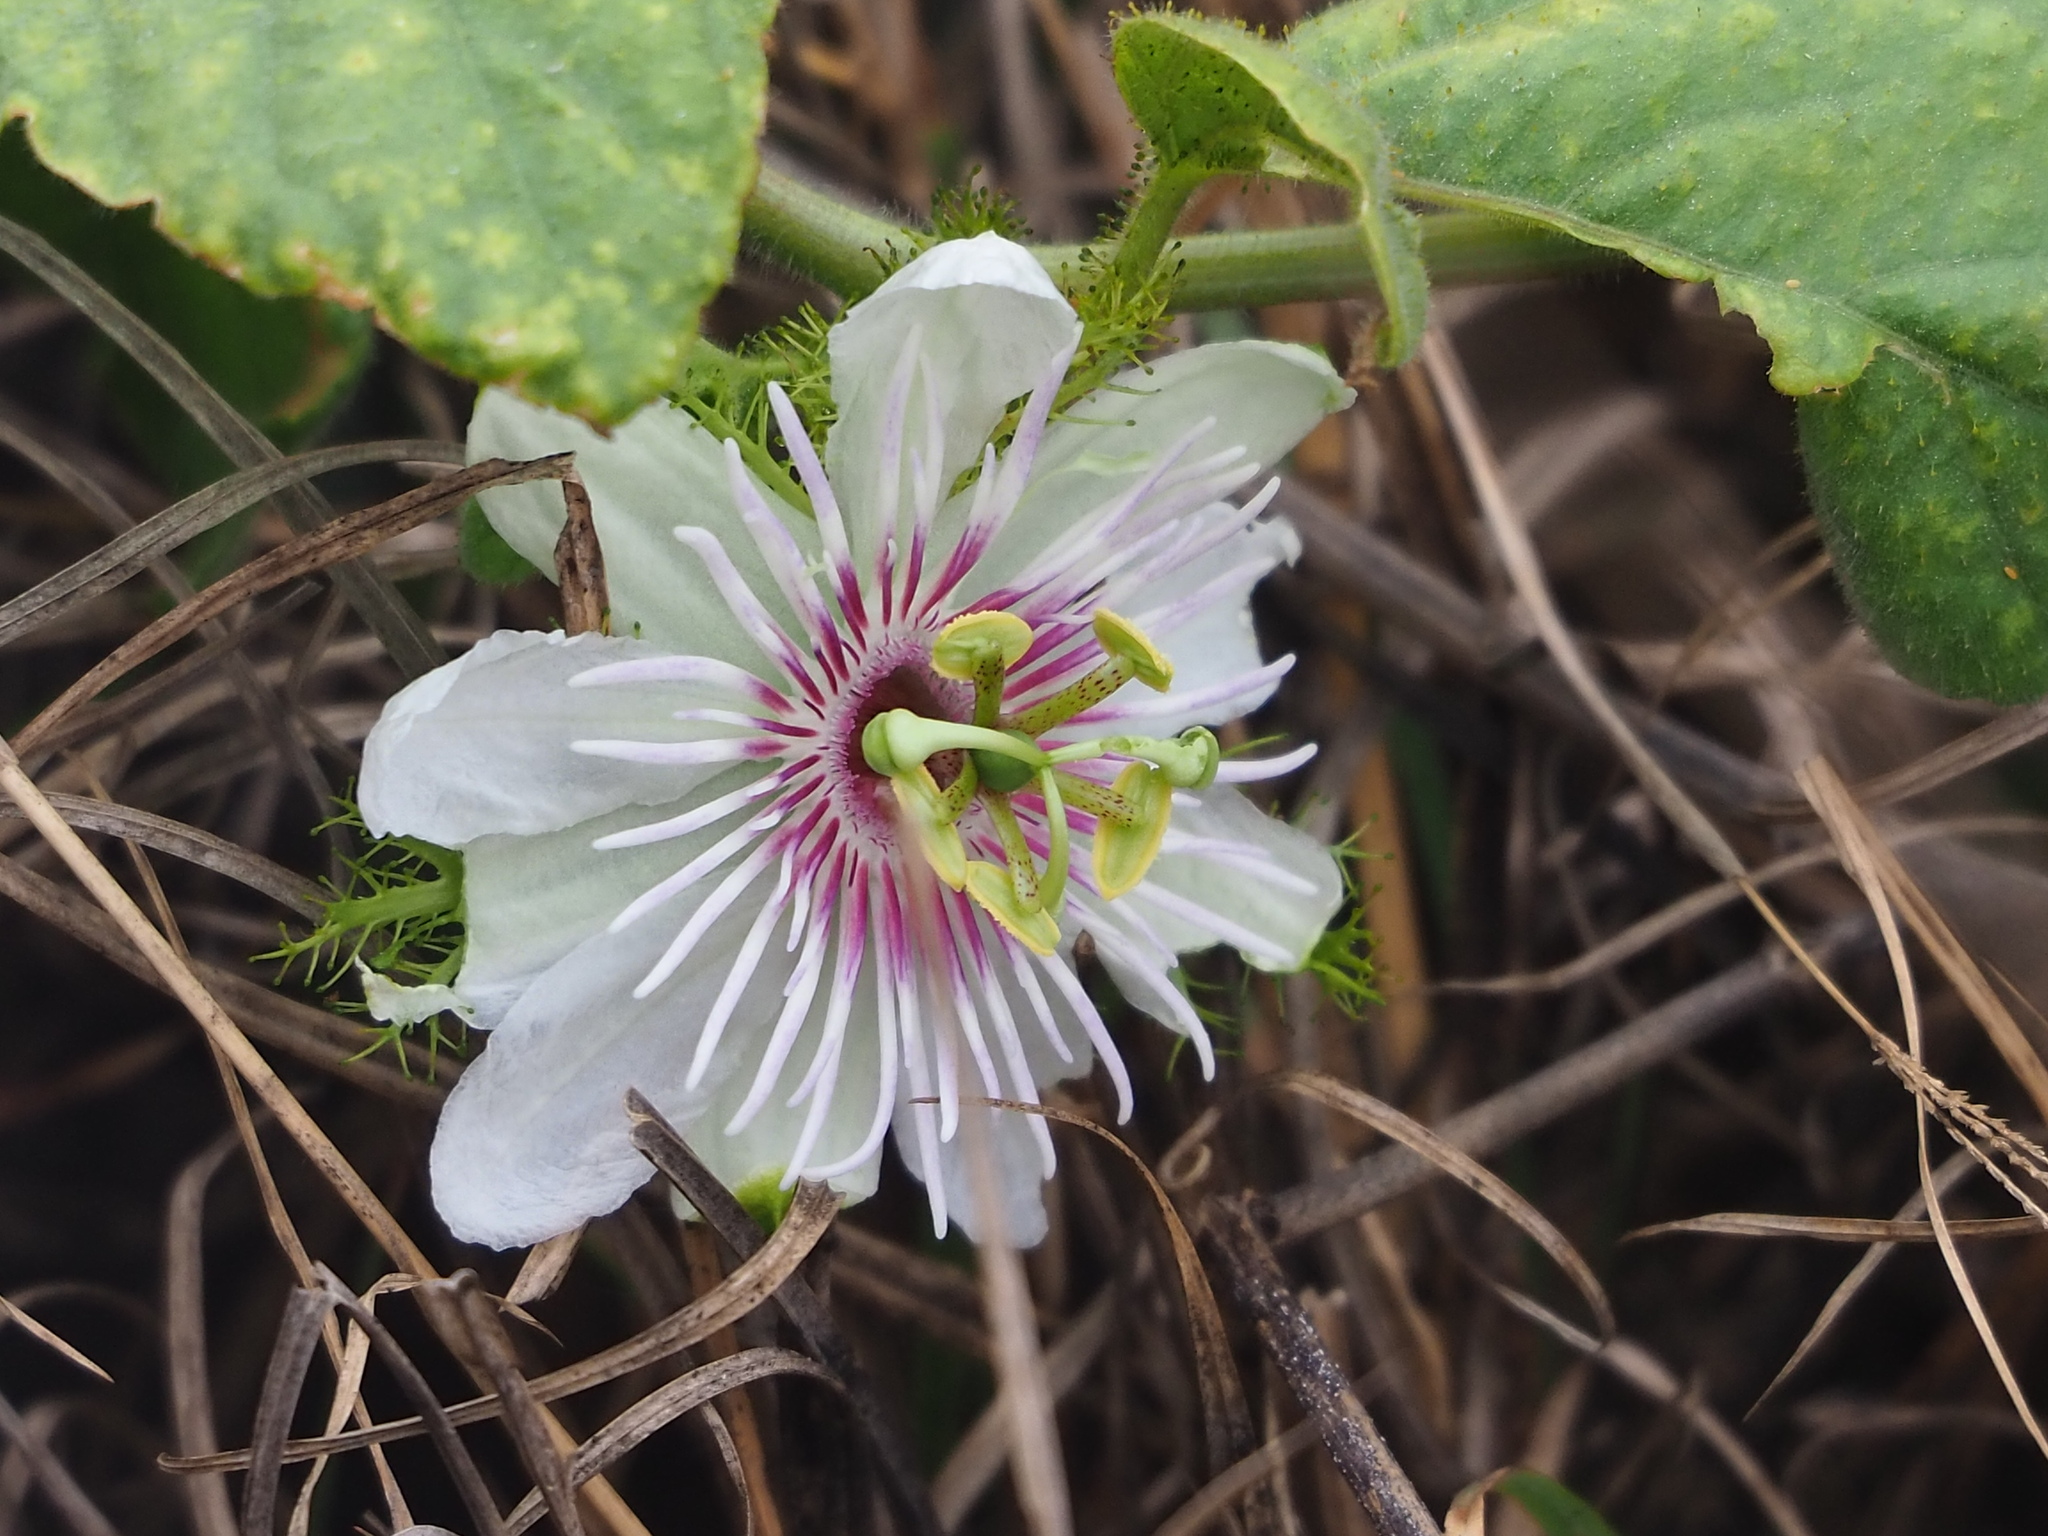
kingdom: Plantae
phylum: Tracheophyta
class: Magnoliopsida
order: Malpighiales
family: Passifloraceae
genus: Passiflora
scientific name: Passiflora vesicaria
